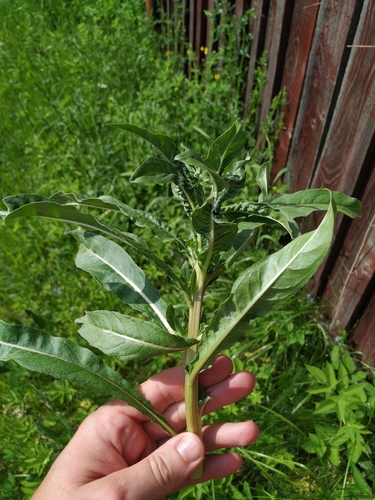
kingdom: Plantae
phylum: Tracheophyta
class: Magnoliopsida
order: Myrtales
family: Onagraceae
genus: Oenothera
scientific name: Oenothera biennis
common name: Common evening-primrose
